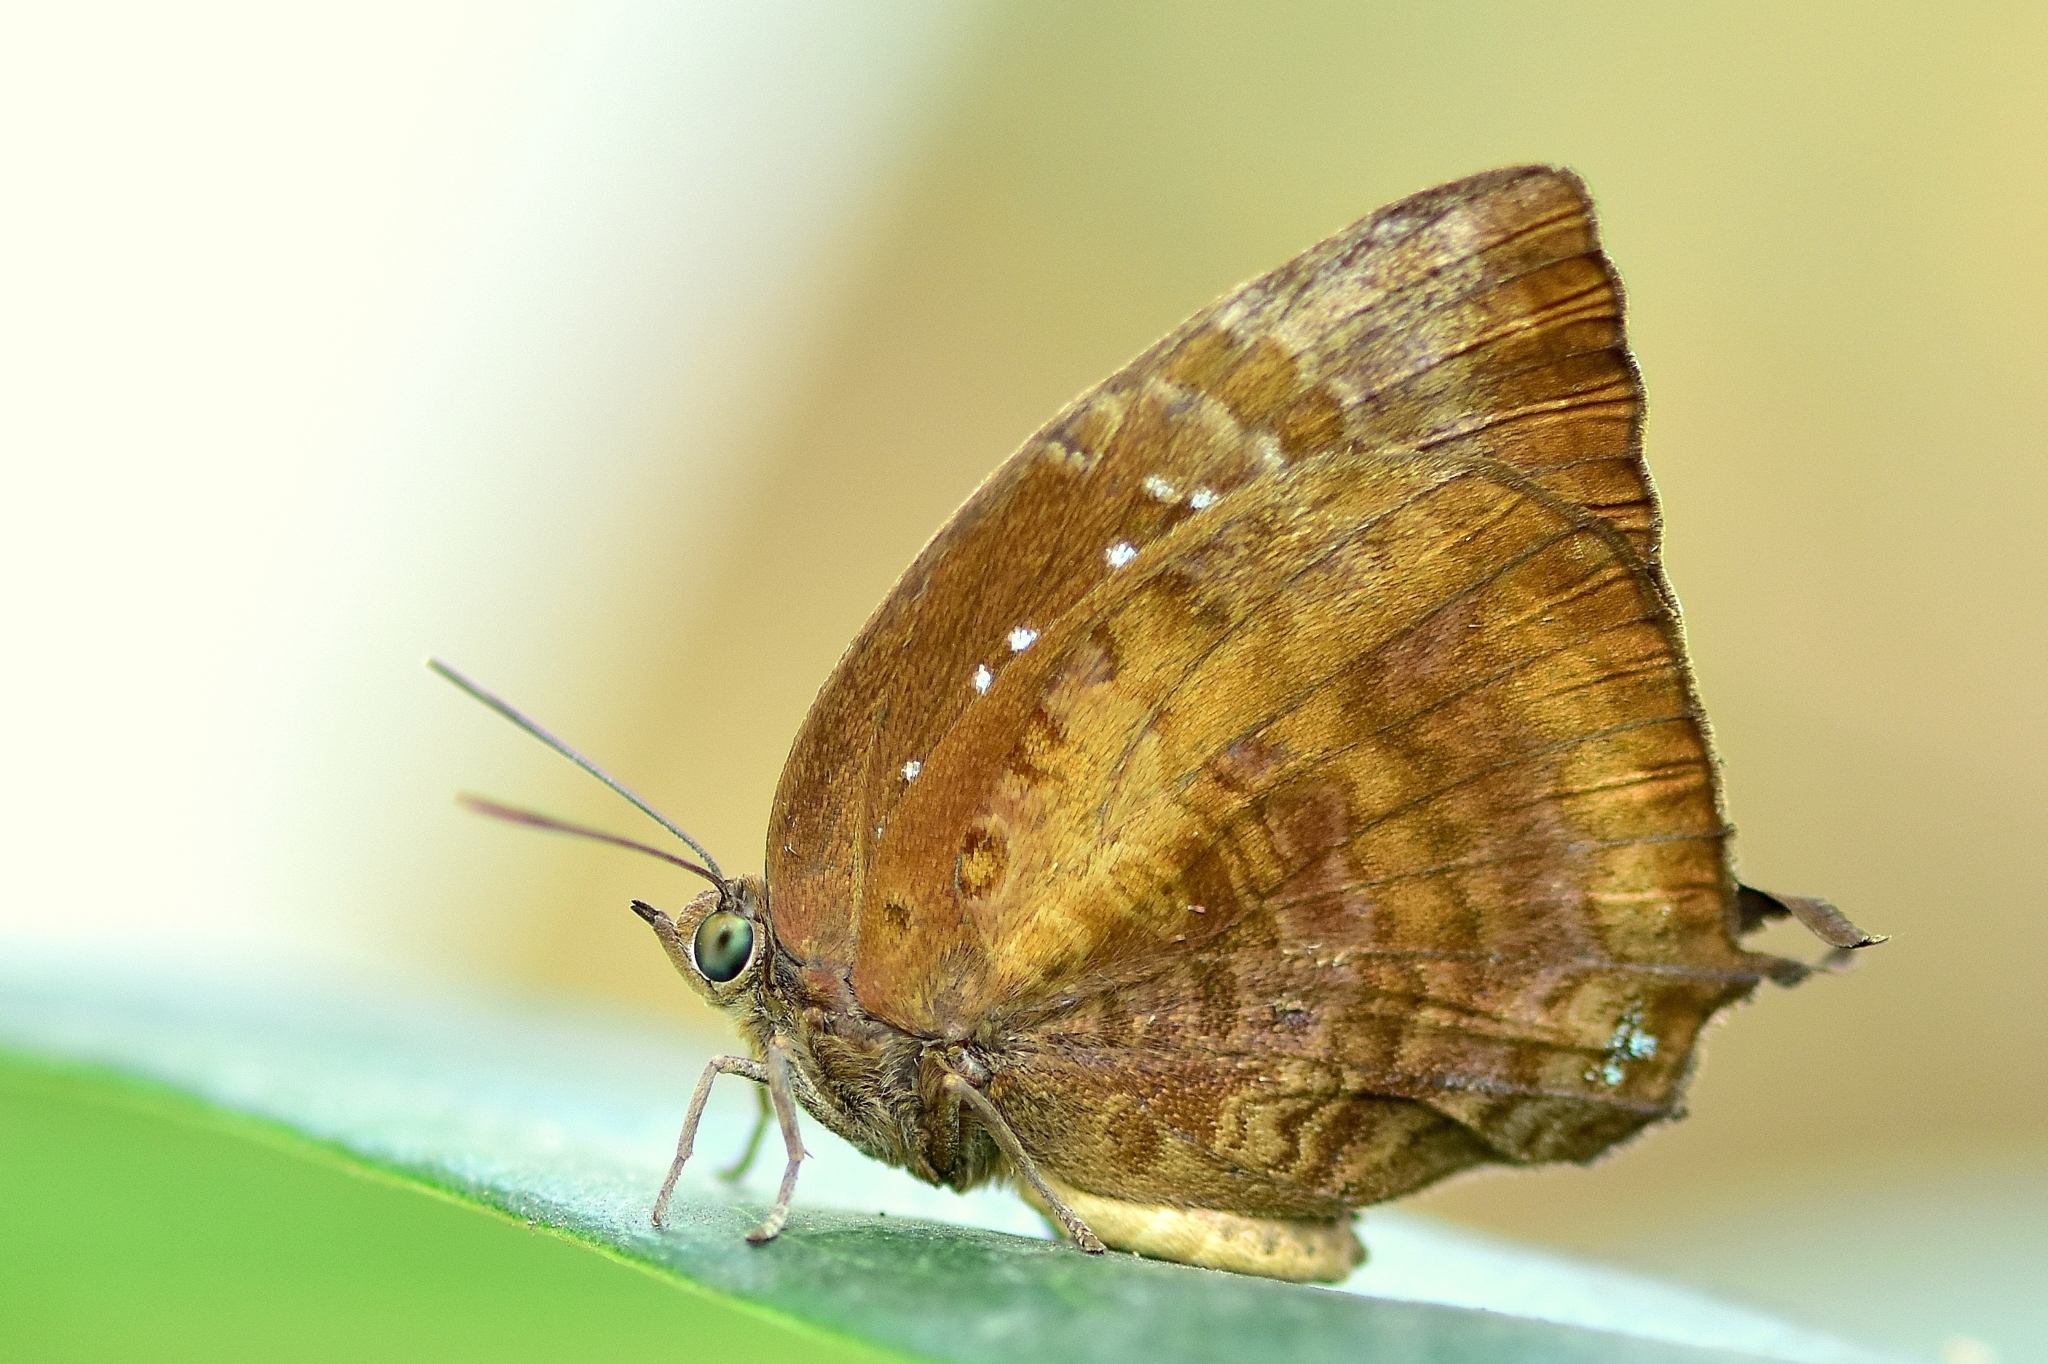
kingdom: Animalia
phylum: Arthropoda
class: Insecta
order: Lepidoptera
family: Lycaenidae
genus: Arhopala
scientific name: Arhopala centaurus
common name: Dull oak-blue
